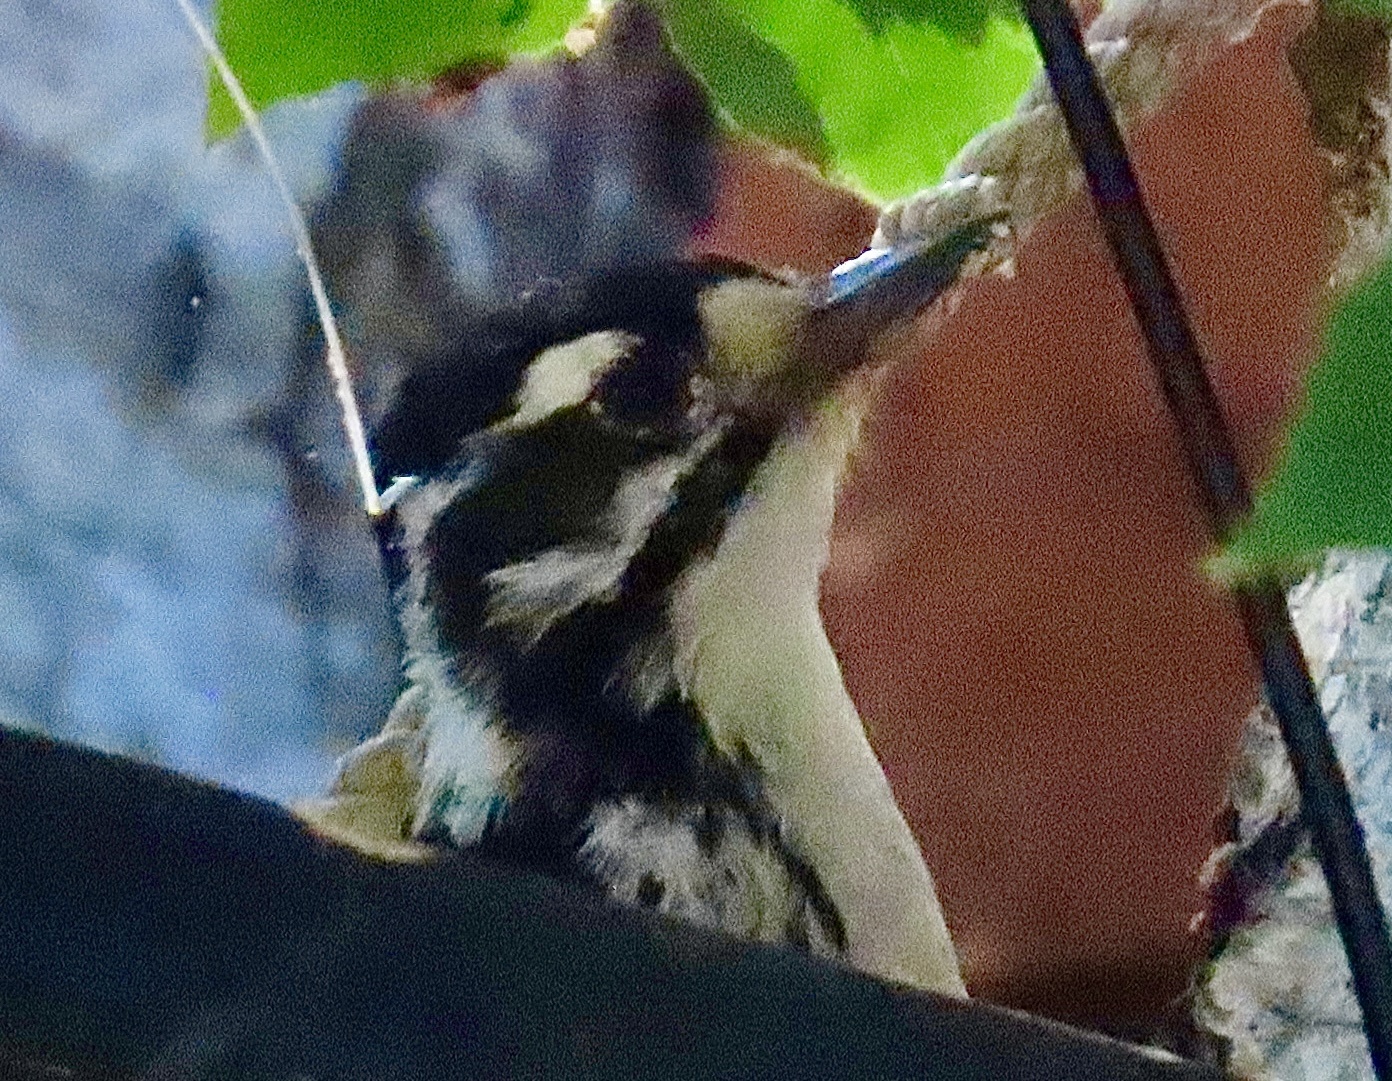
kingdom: Animalia
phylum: Chordata
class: Aves
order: Piciformes
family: Picidae
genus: Dryobates
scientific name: Dryobates nuttallii
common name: Nuttall's woodpecker
